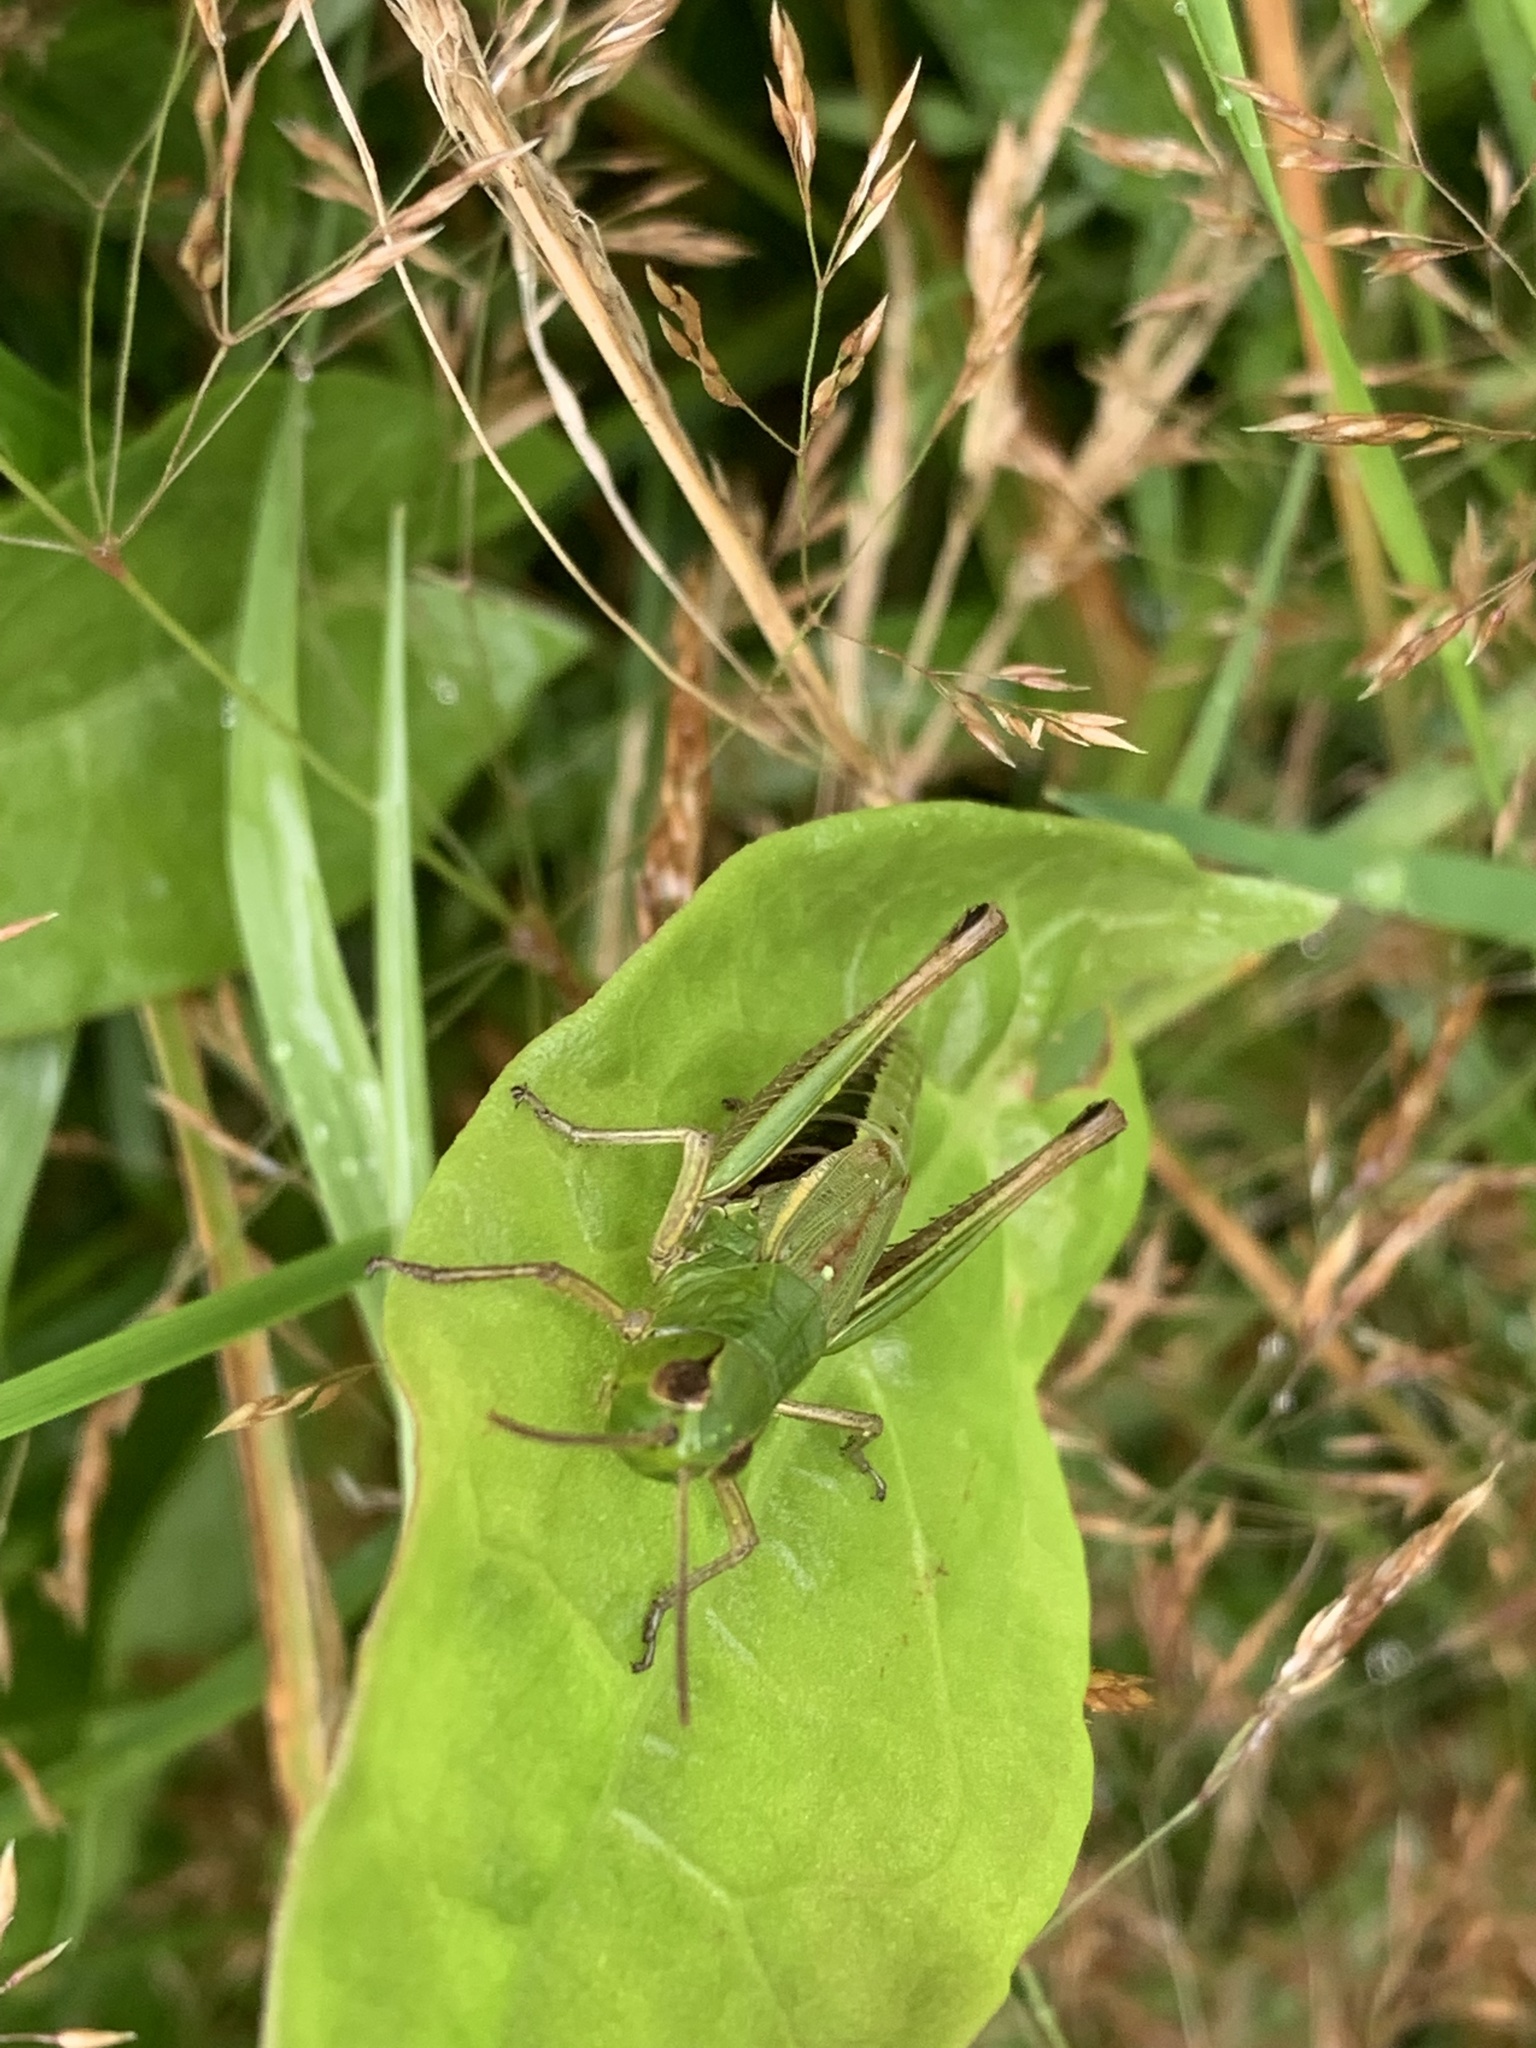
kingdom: Animalia
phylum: Arthropoda
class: Insecta
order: Orthoptera
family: Acrididae
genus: Pseudochorthippus
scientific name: Pseudochorthippus parallelus
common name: Meadow grasshopper
